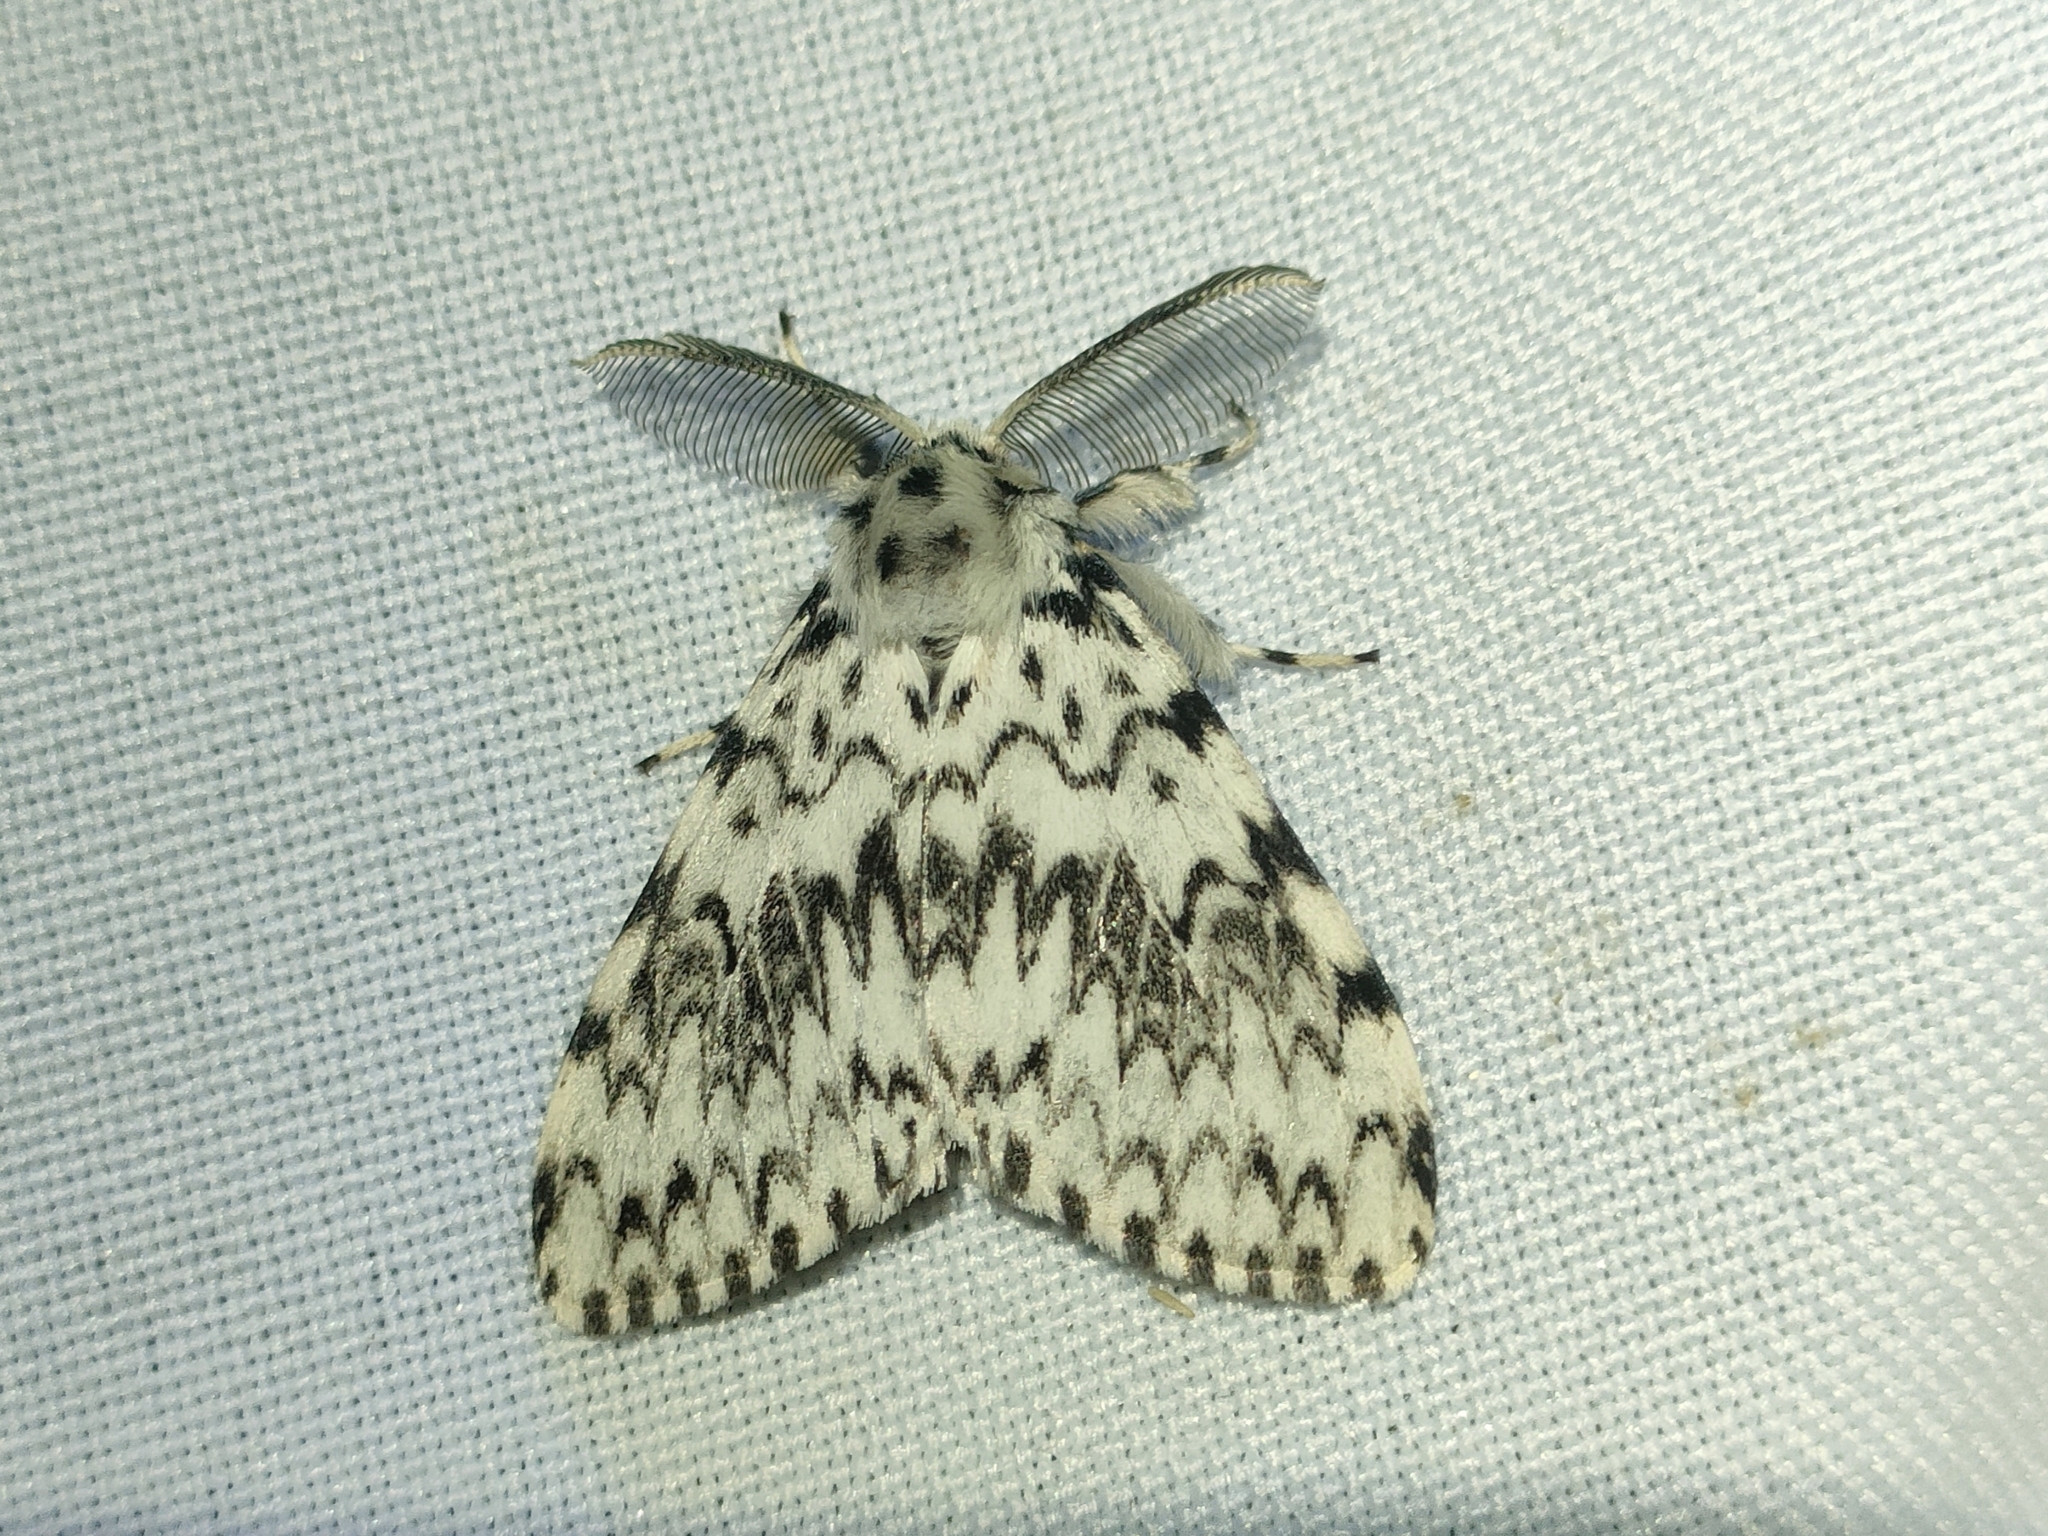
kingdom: Animalia
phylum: Arthropoda
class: Insecta
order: Lepidoptera
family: Erebidae
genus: Lymantria
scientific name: Lymantria monacha
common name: Black arches
